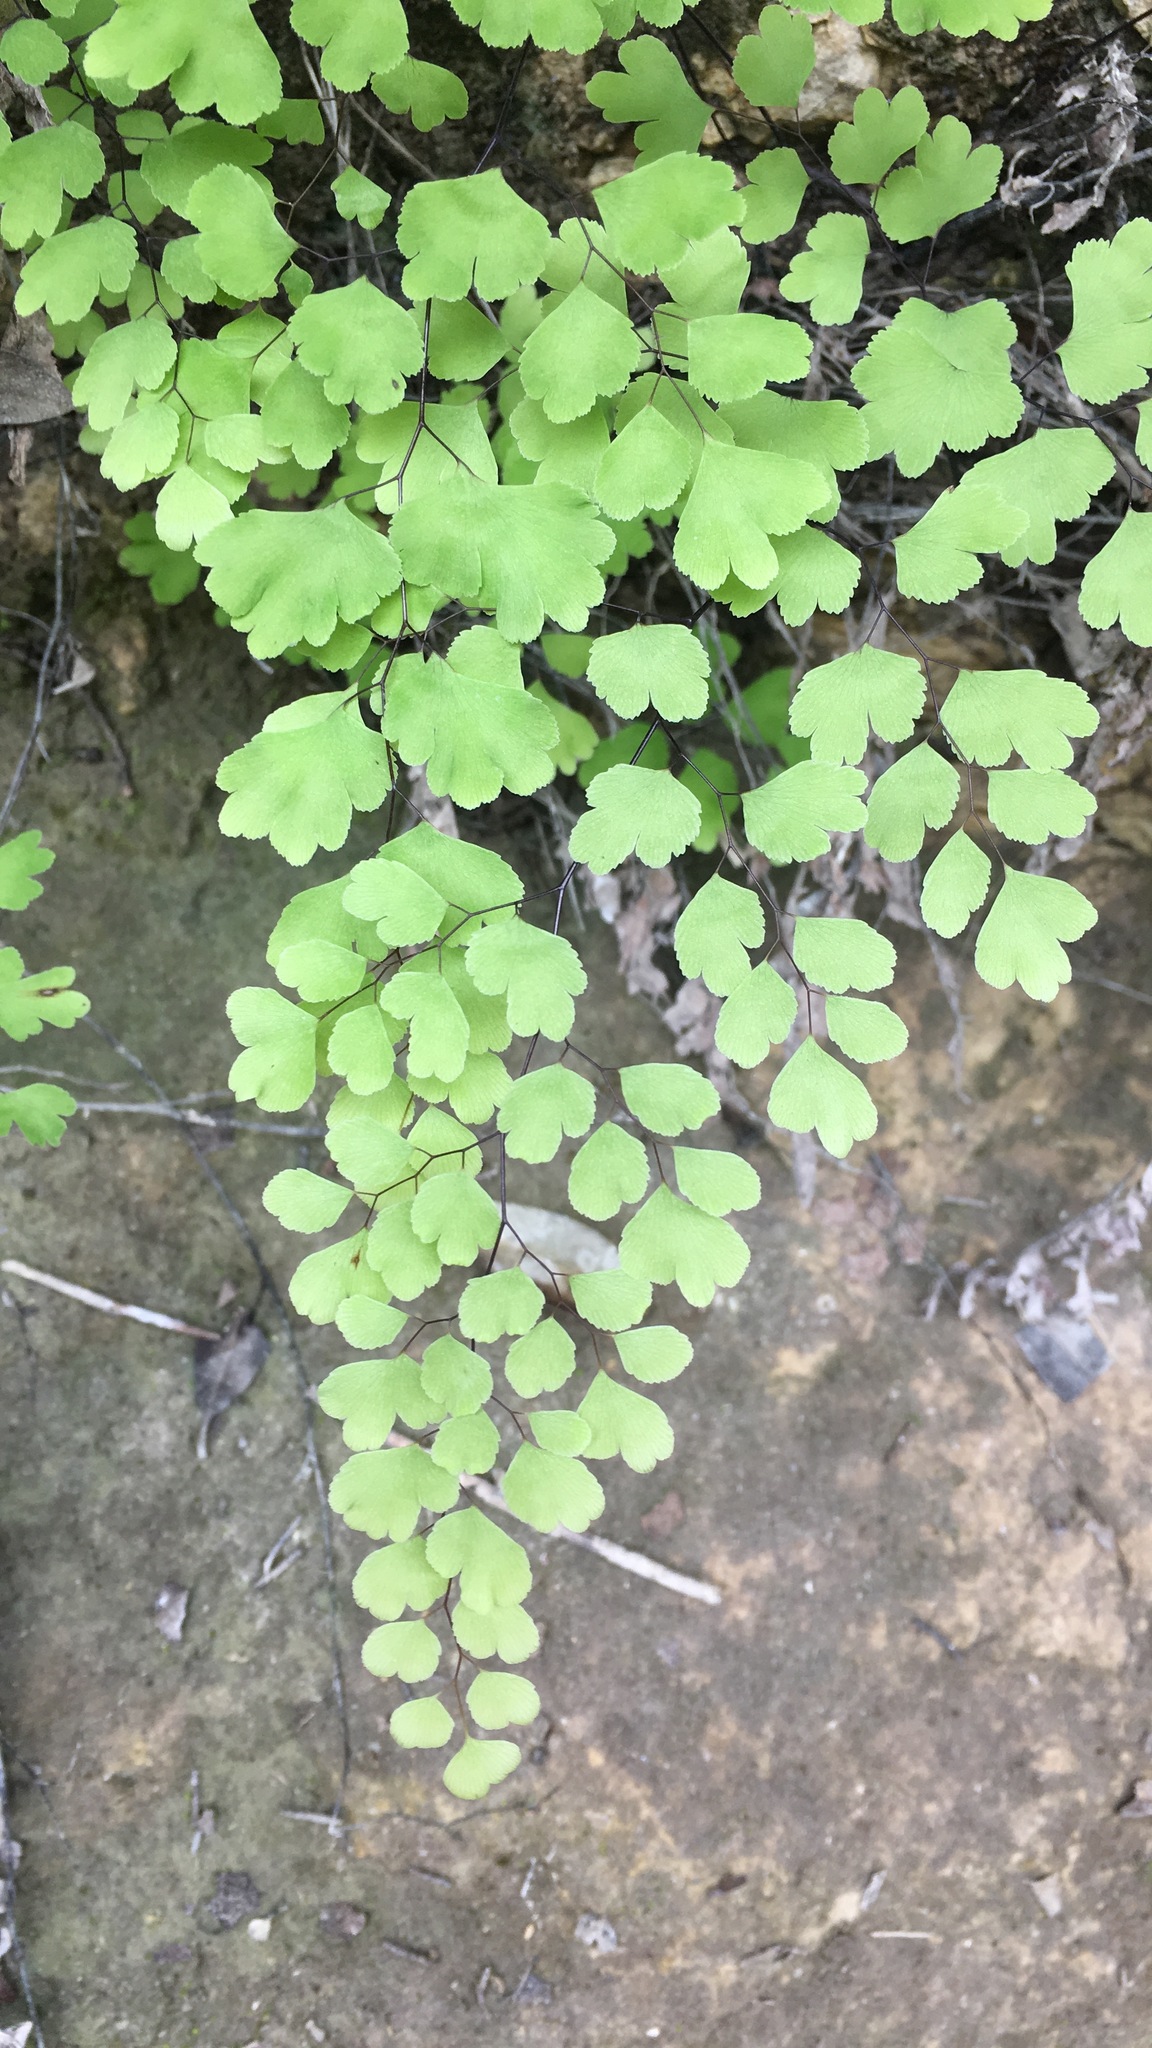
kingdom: Plantae
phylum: Tracheophyta
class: Polypodiopsida
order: Polypodiales
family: Pteridaceae
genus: Adiantum
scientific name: Adiantum capillus-veneris
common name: Maidenhair fern
